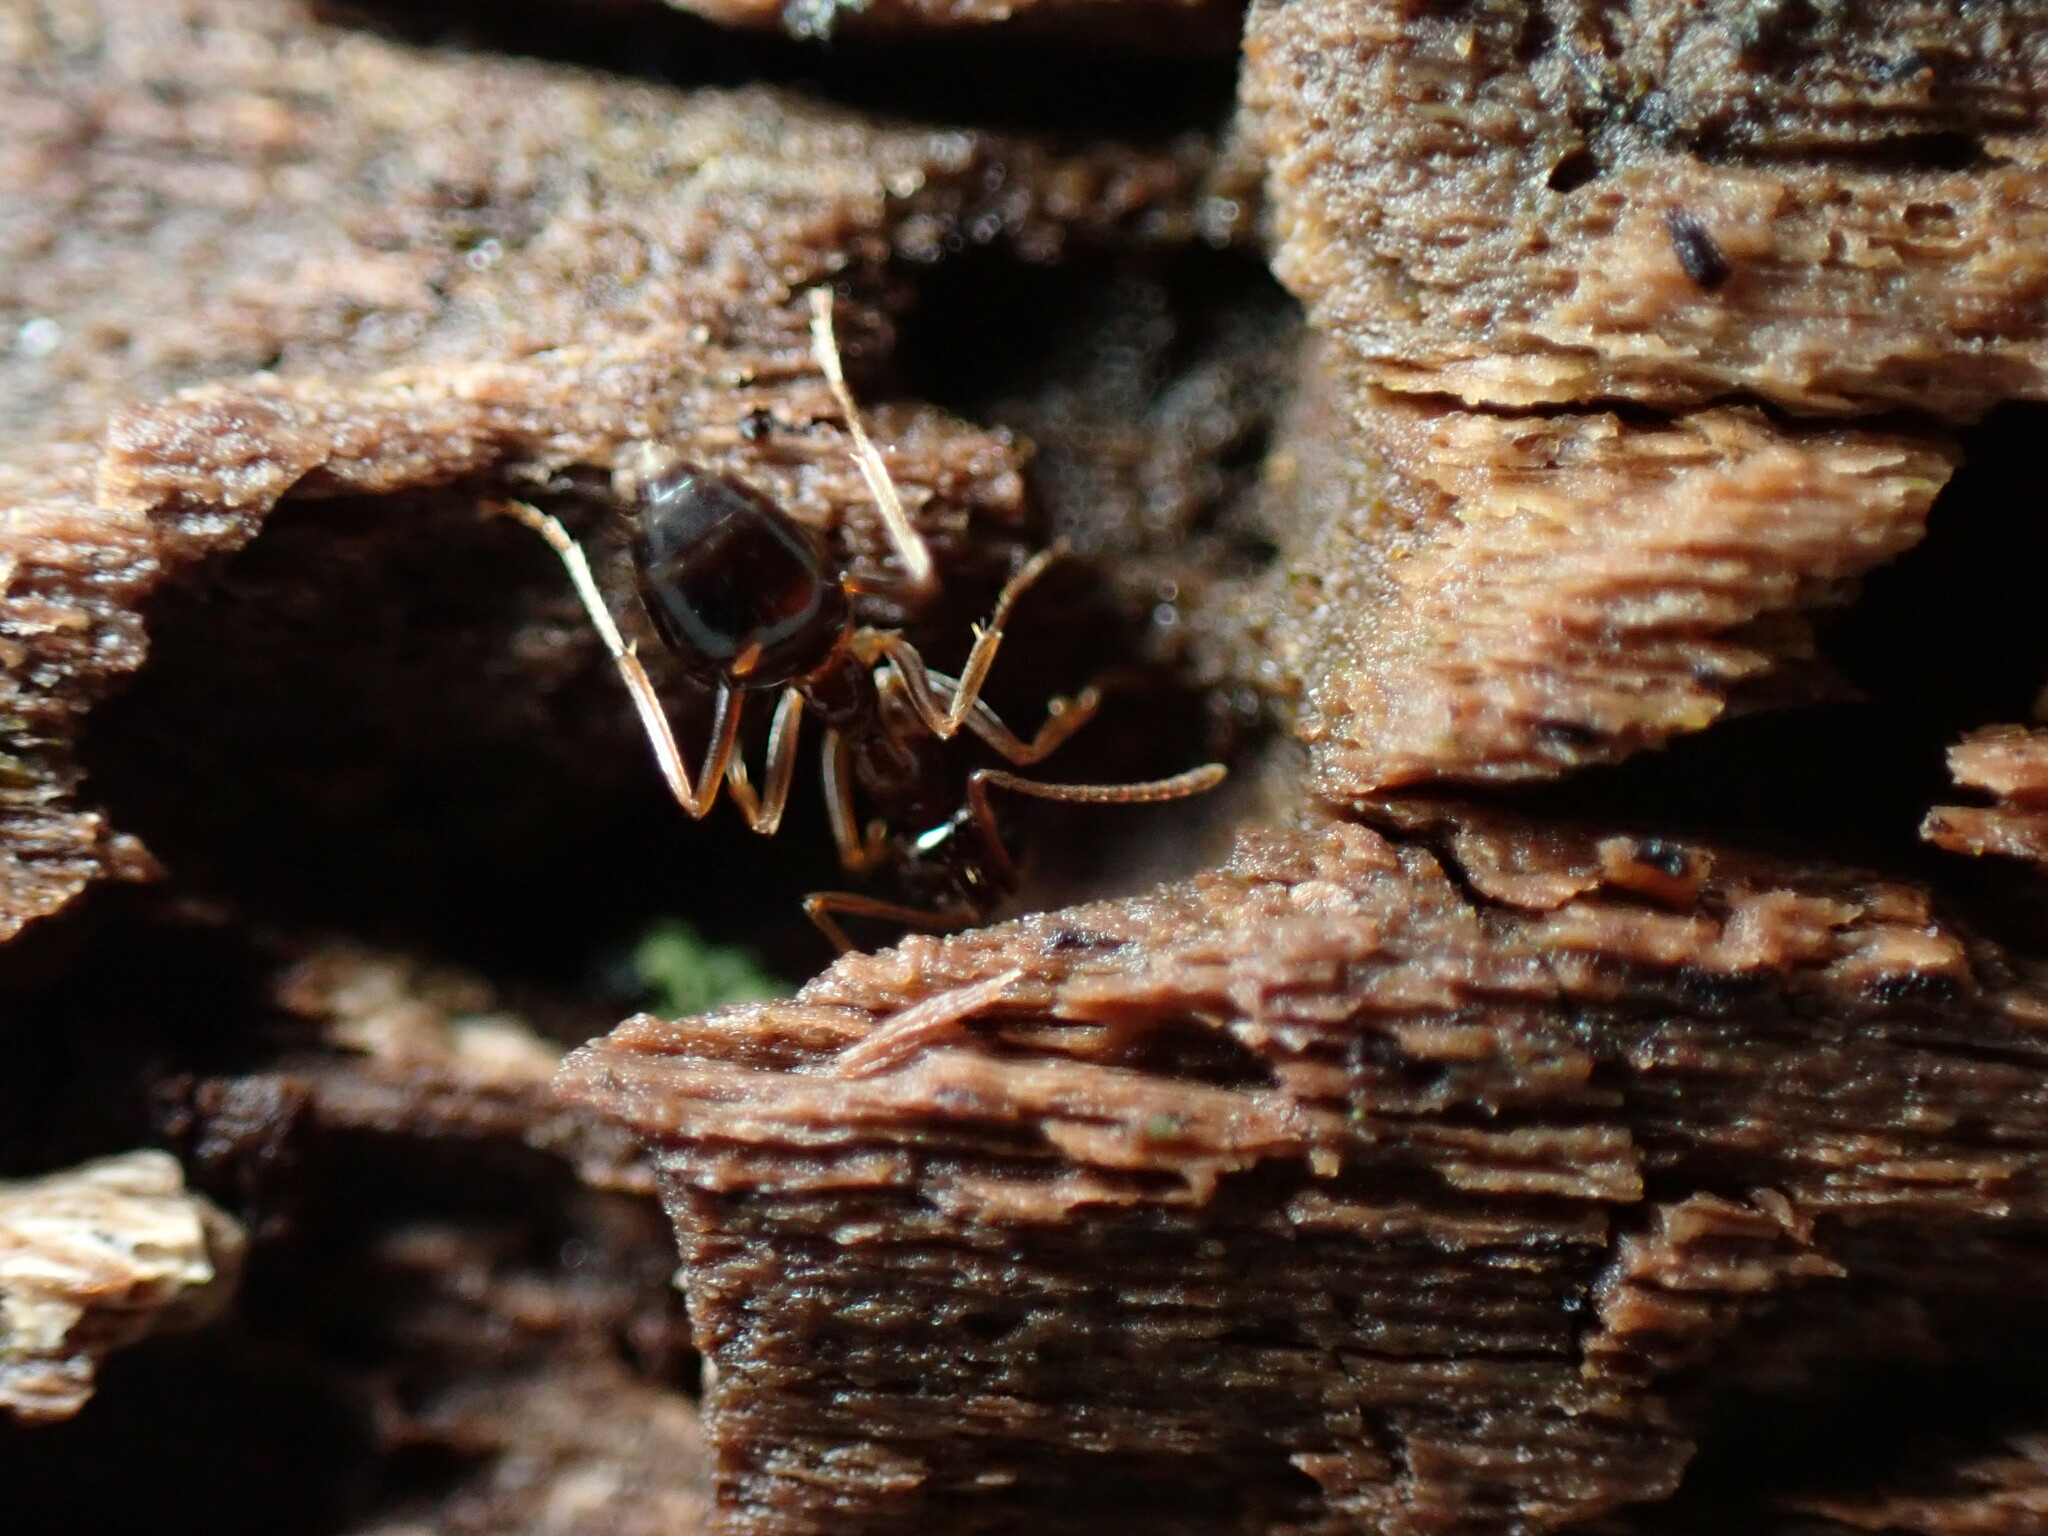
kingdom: Animalia
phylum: Arthropoda
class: Insecta
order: Hymenoptera
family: Formicidae
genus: Prenolepis
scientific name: Prenolepis imparis
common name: Small honey ant
